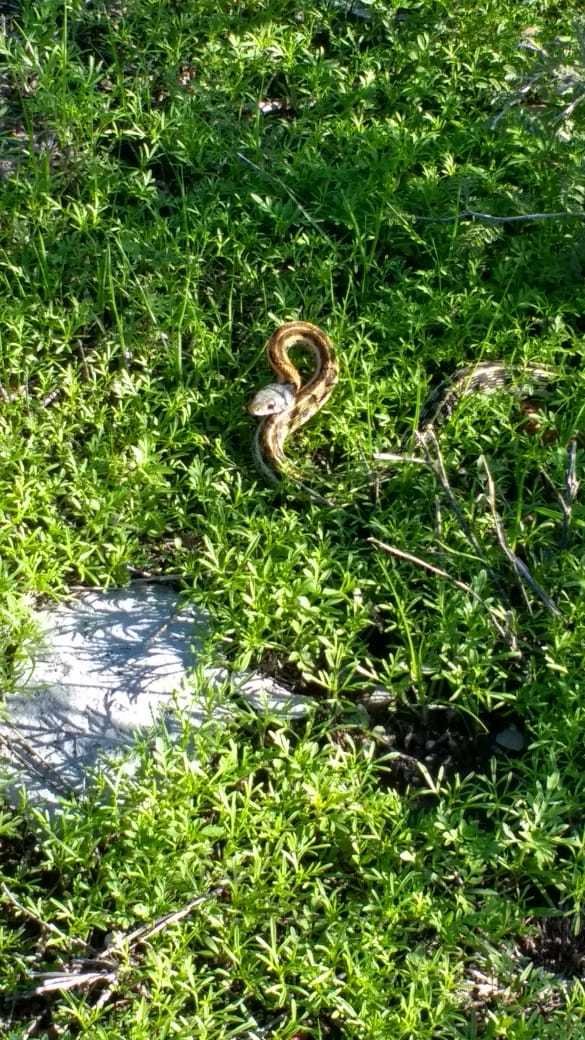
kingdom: Animalia
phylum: Chordata
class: Squamata
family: Colubridae
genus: Thamnophis
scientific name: Thamnophis cyrtopsis
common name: Black-necked gartersnake
